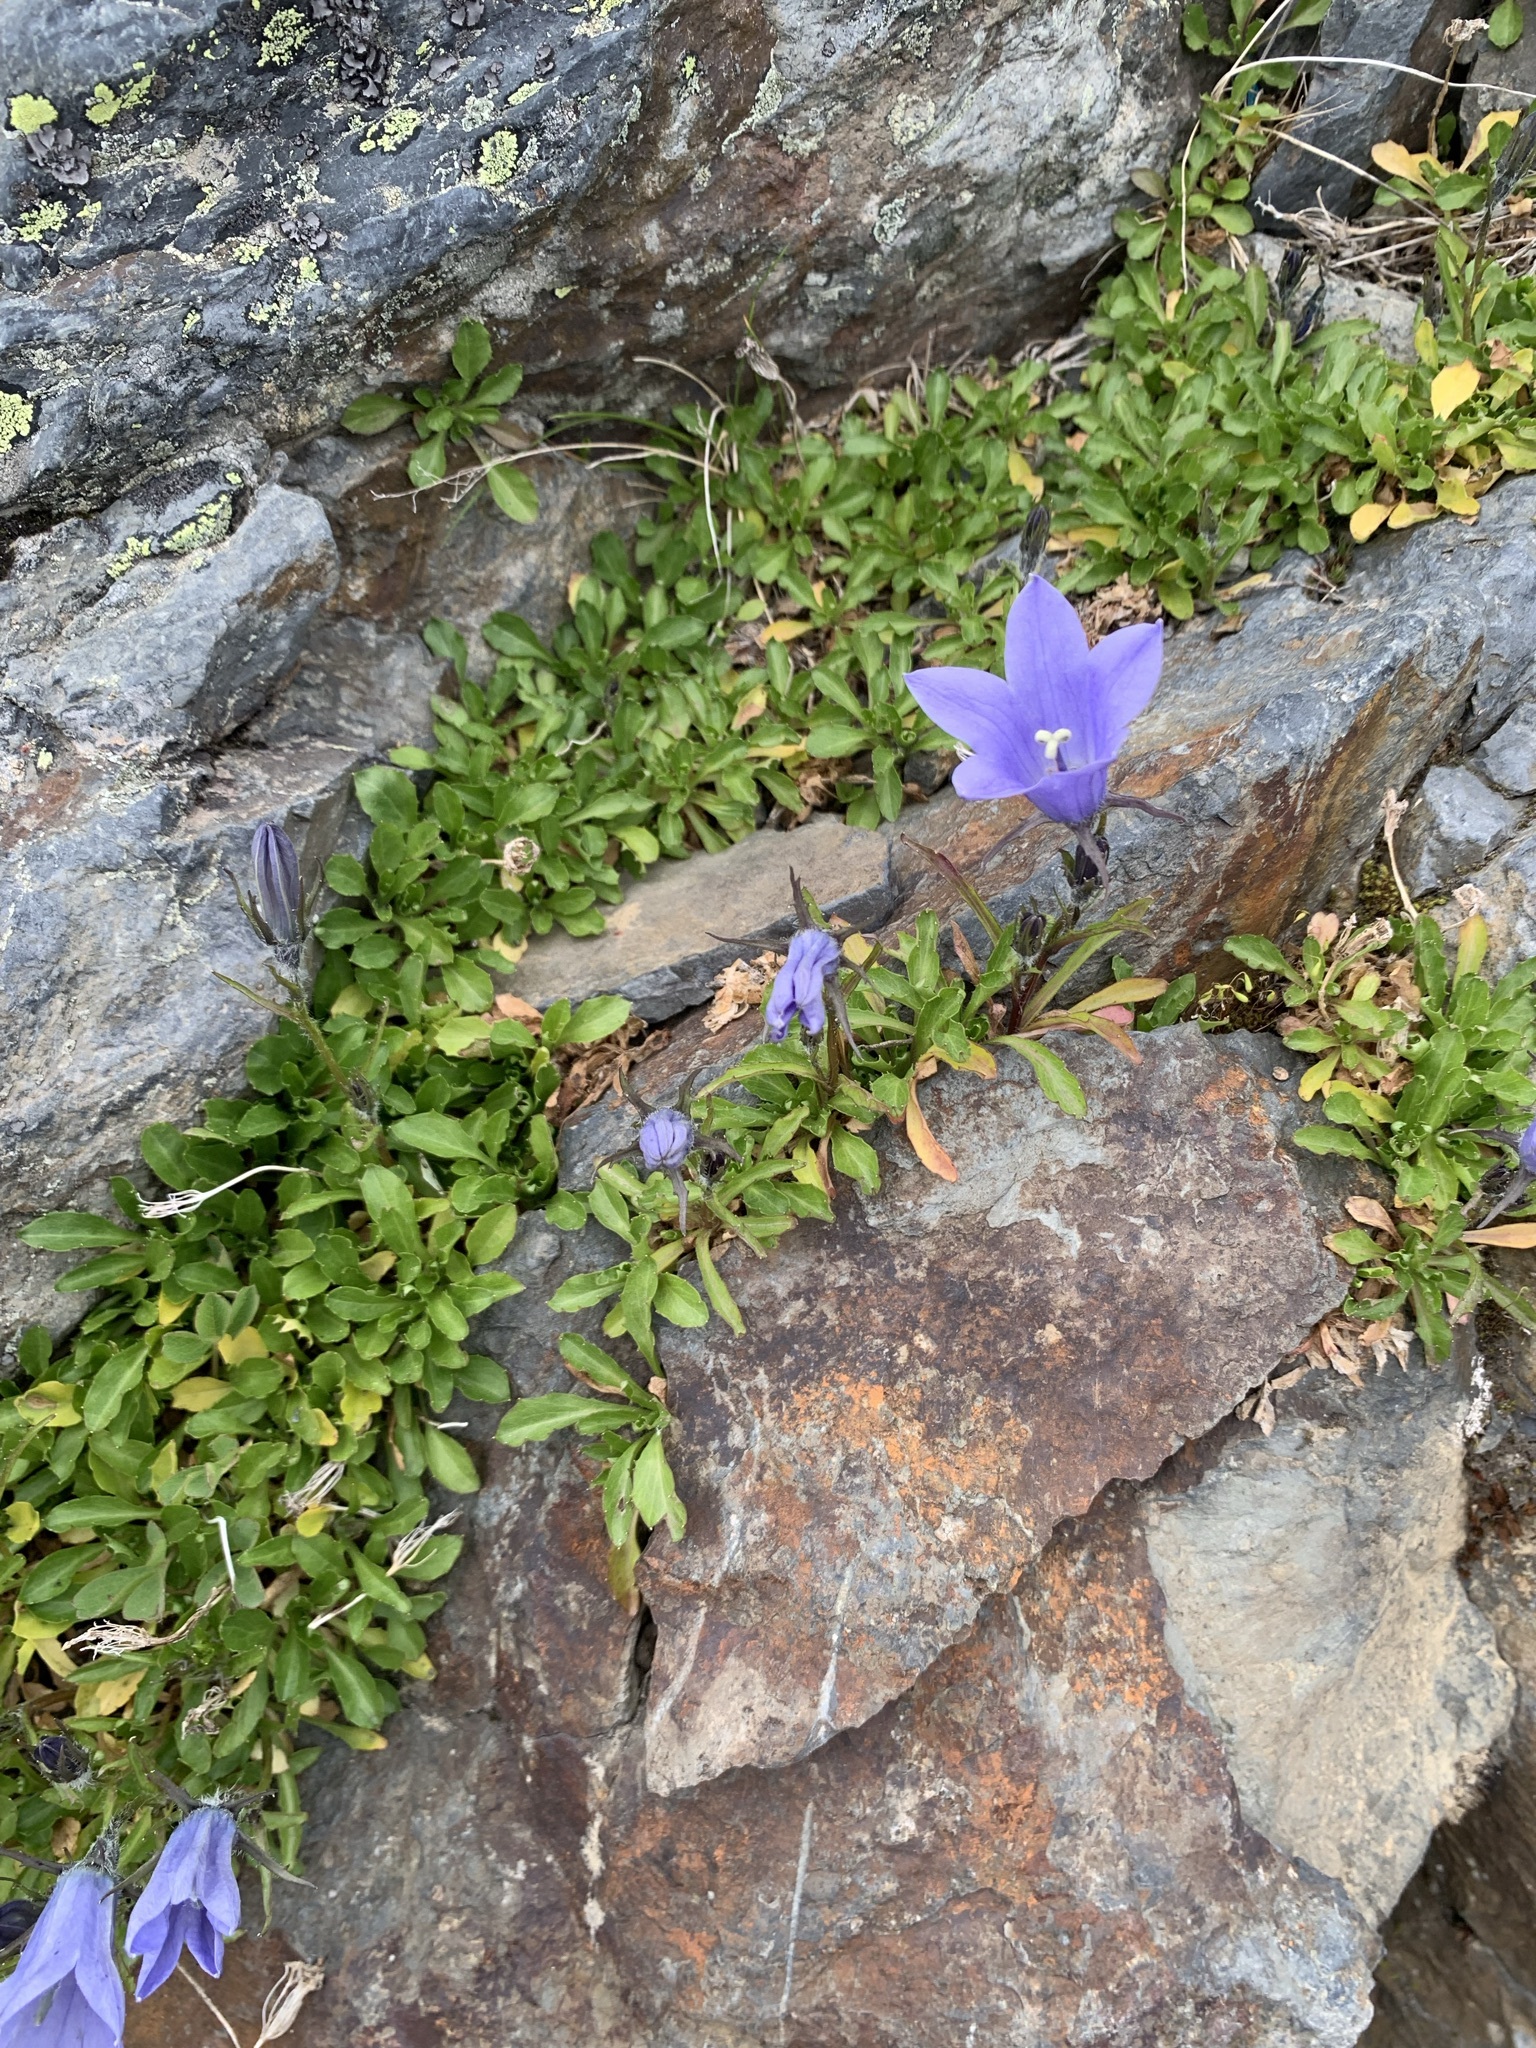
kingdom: Plantae
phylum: Tracheophyta
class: Magnoliopsida
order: Asterales
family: Campanulaceae
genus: Campanula
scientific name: Campanula lasiocarpa
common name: Mountain harebell
